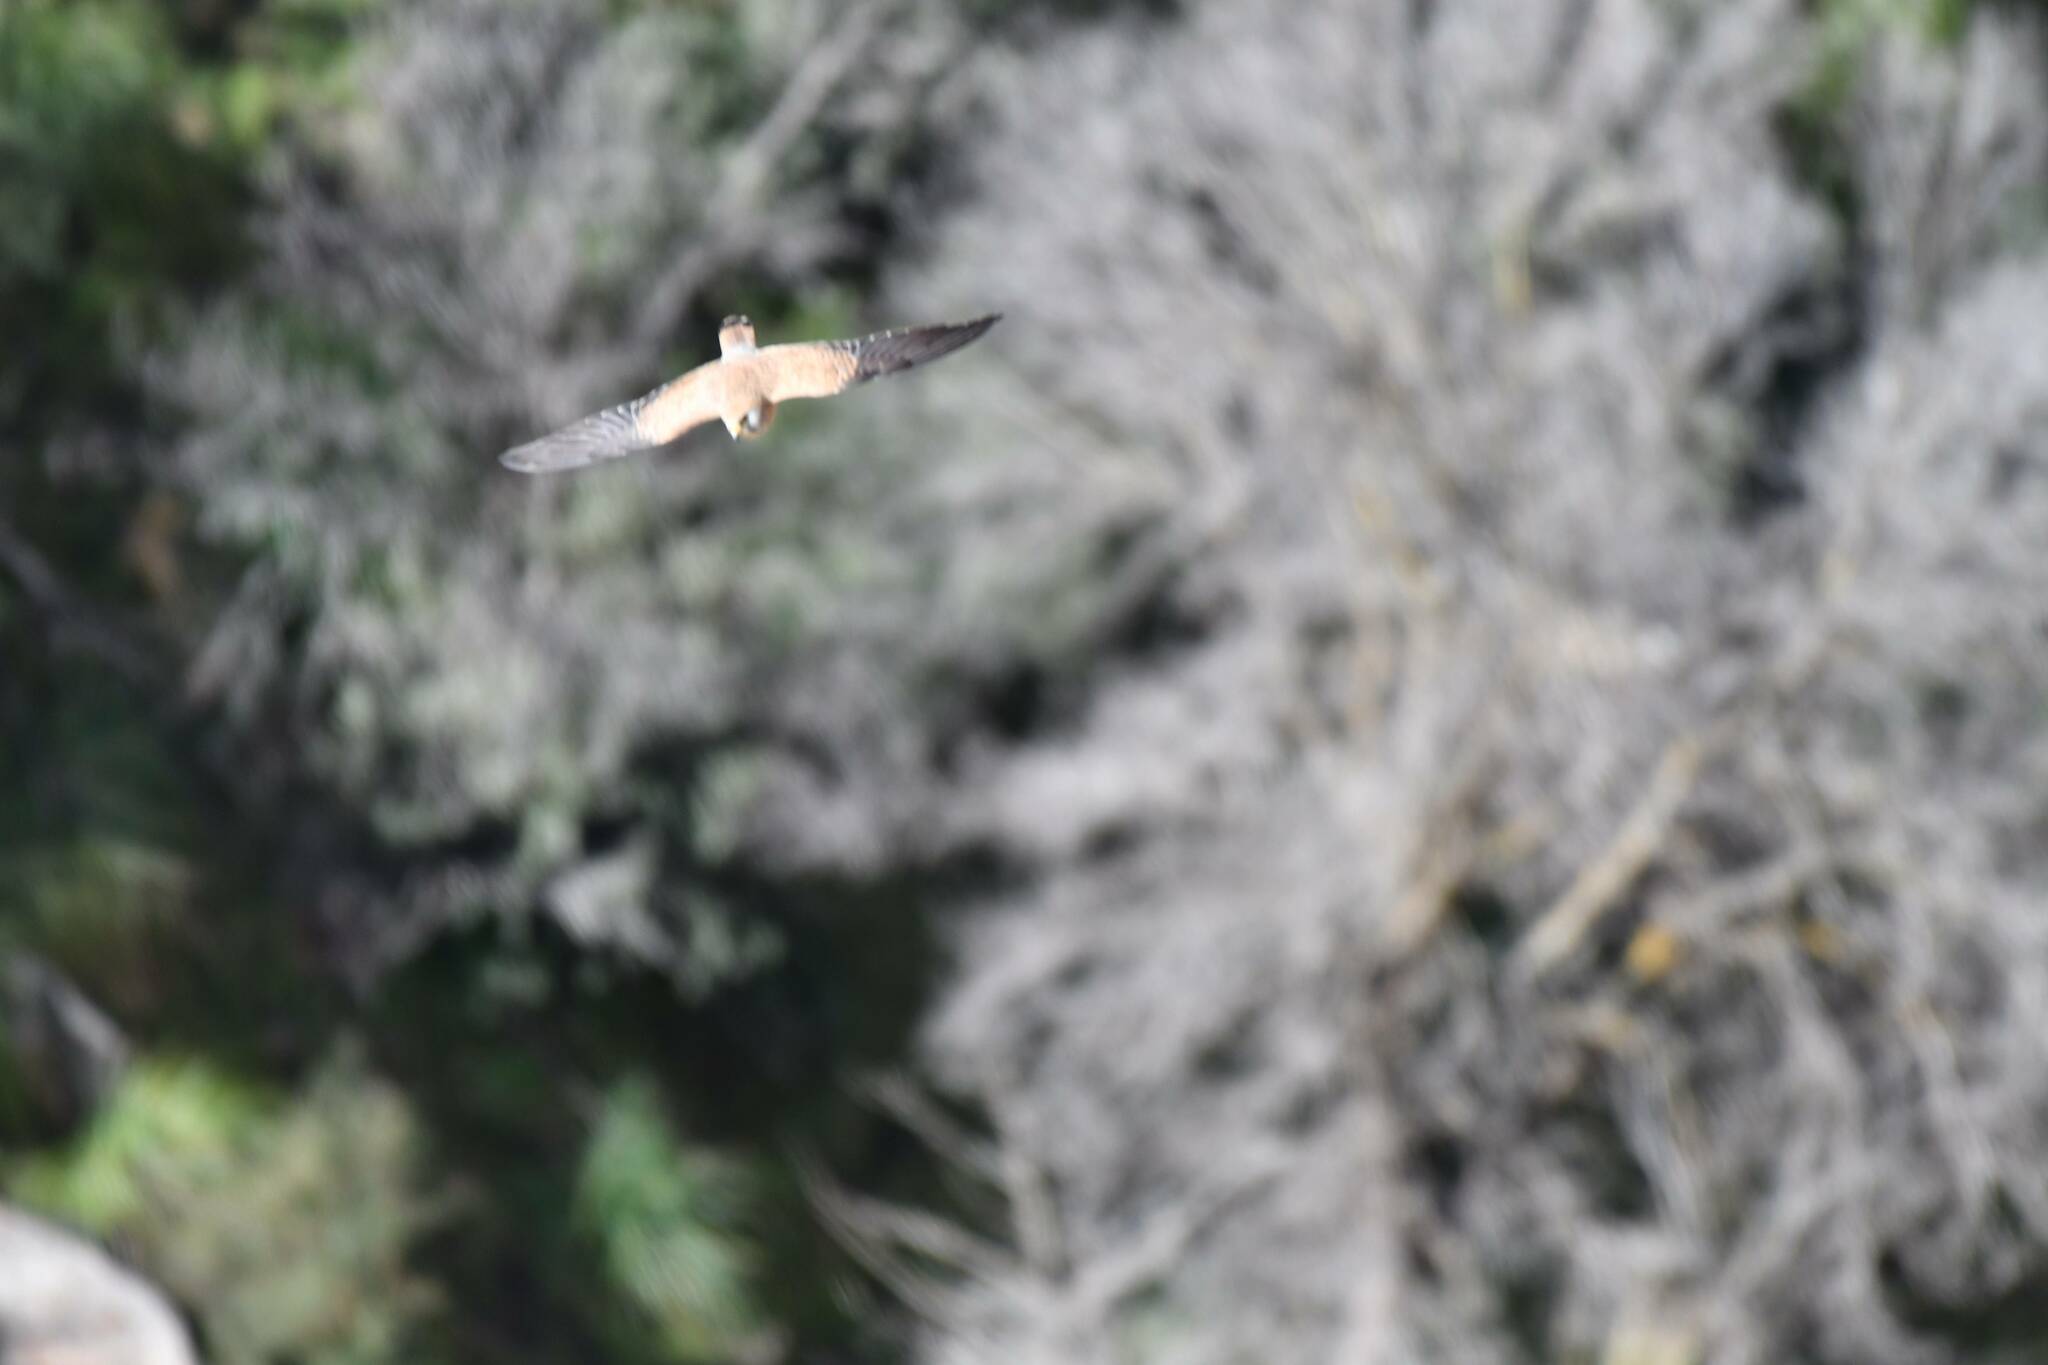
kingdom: Animalia
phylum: Chordata
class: Aves
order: Falconiformes
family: Falconidae
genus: Falco
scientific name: Falco tinnunculus
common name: Common kestrel
